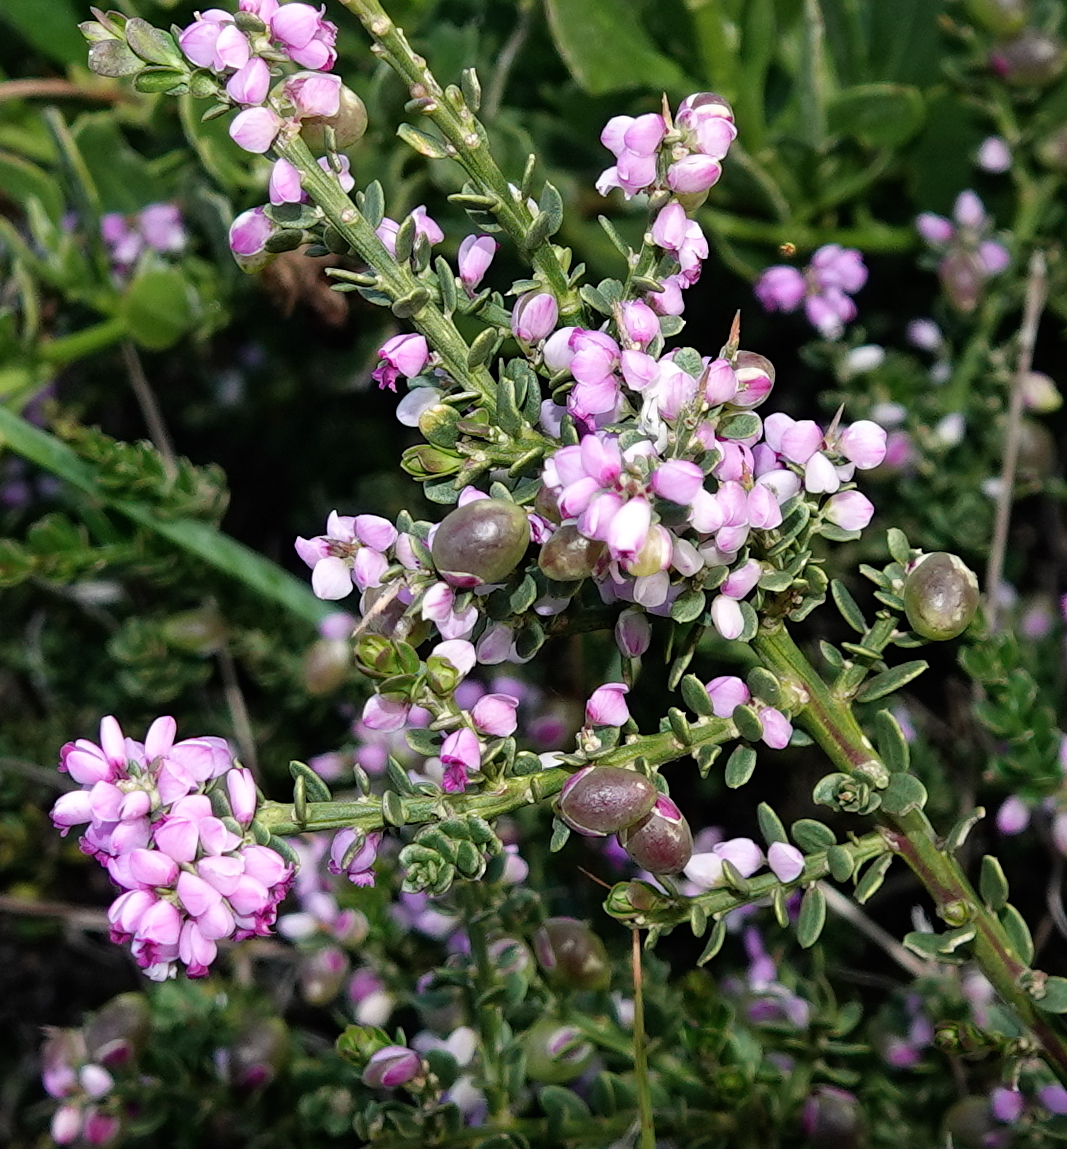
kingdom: Plantae
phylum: Tracheophyta
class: Magnoliopsida
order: Fabales
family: Polygalaceae
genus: Muraltia
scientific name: Muraltia spinosa
